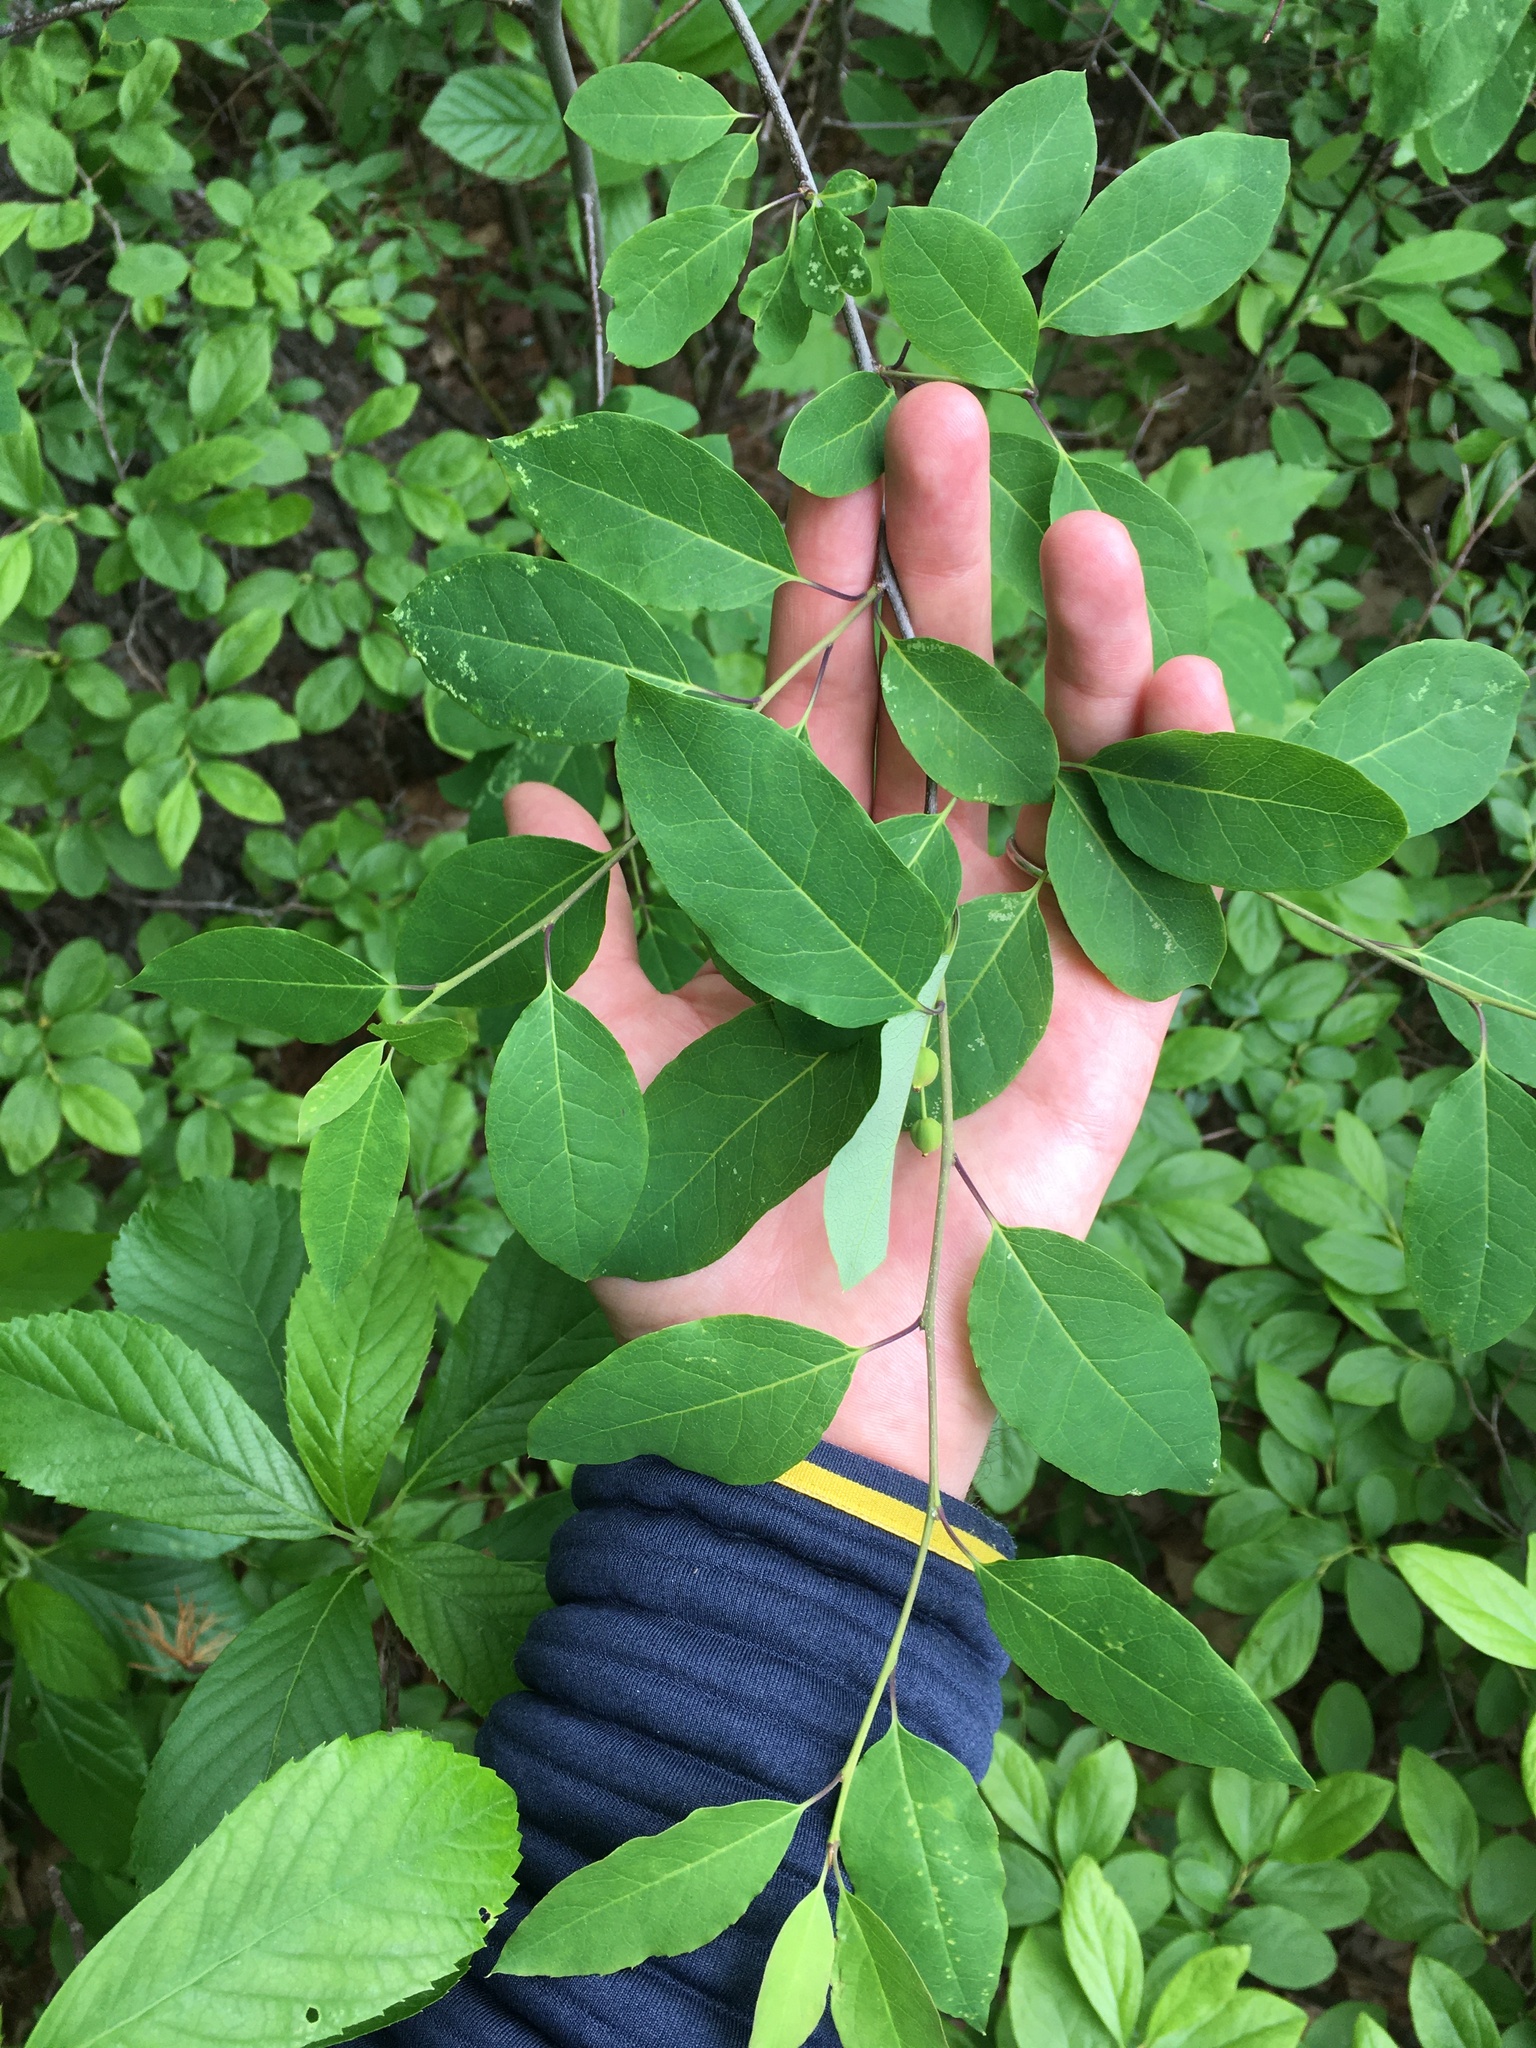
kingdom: Plantae
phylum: Tracheophyta
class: Magnoliopsida
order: Aquifoliales
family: Aquifoliaceae
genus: Ilex
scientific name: Ilex mucronata
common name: Catberry
